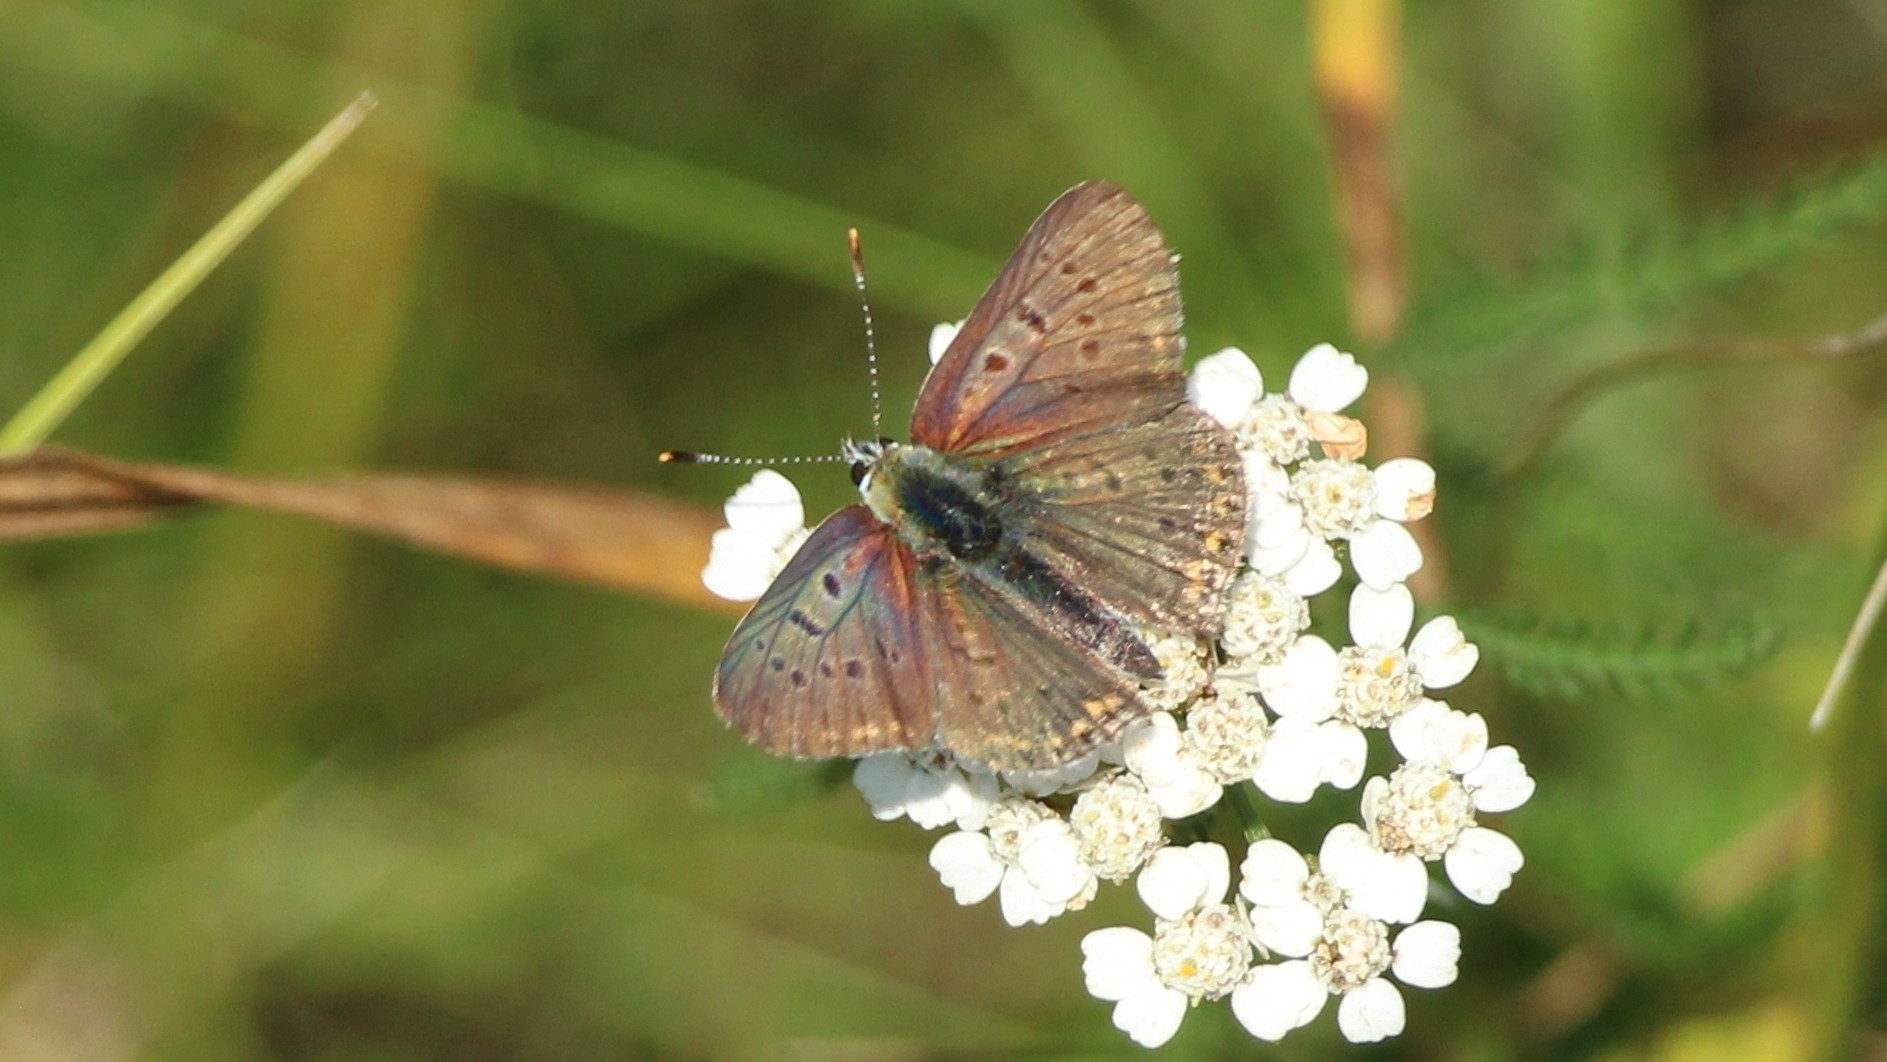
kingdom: Animalia
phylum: Arthropoda
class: Insecta
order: Lepidoptera
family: Lycaenidae
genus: Loweia
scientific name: Loweia tityrus
